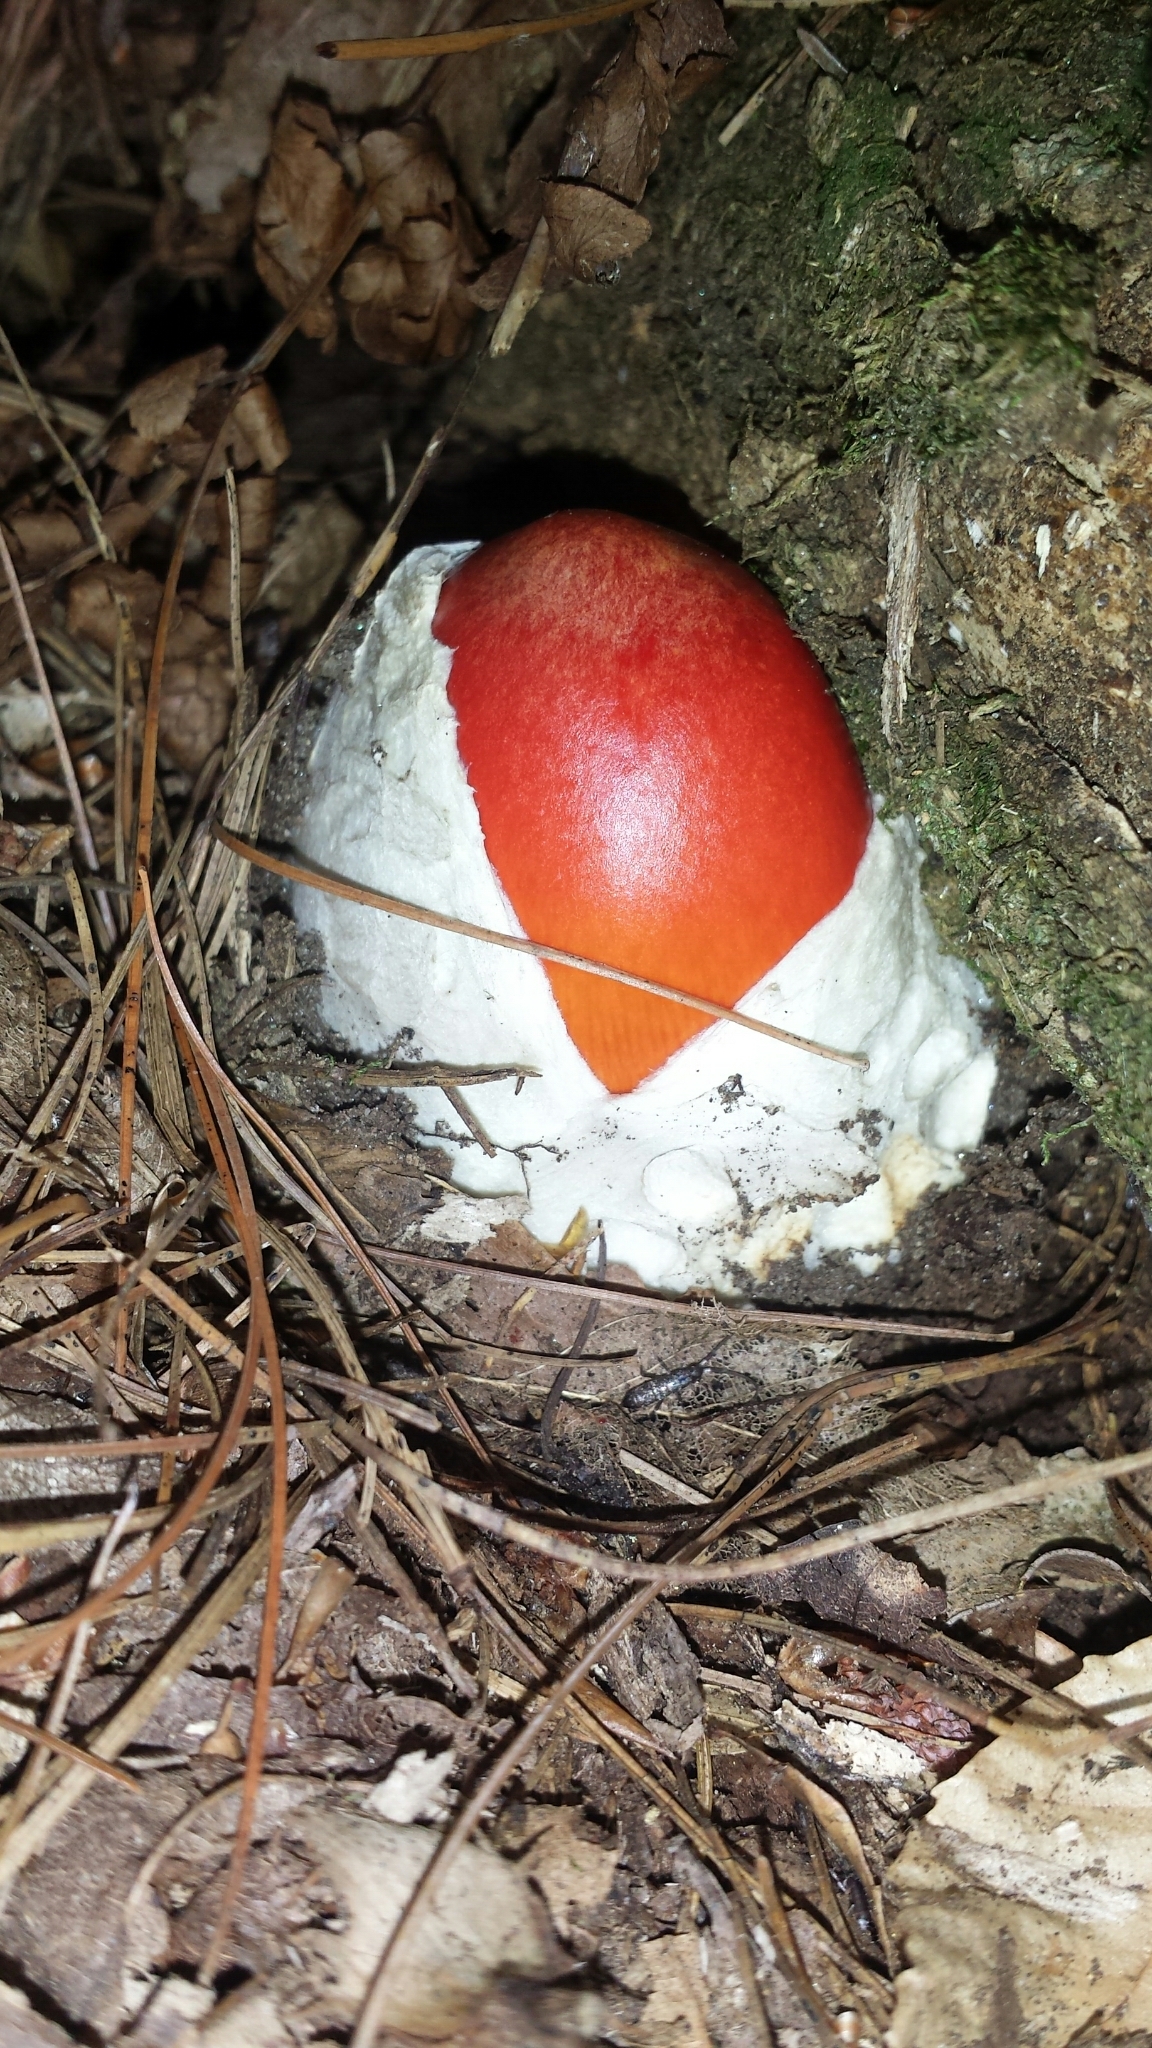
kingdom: Fungi
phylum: Basidiomycota
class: Agaricomycetes
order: Agaricales
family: Amanitaceae
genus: Amanita
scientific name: Amanita jacksonii
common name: Jackson's slender caesar
